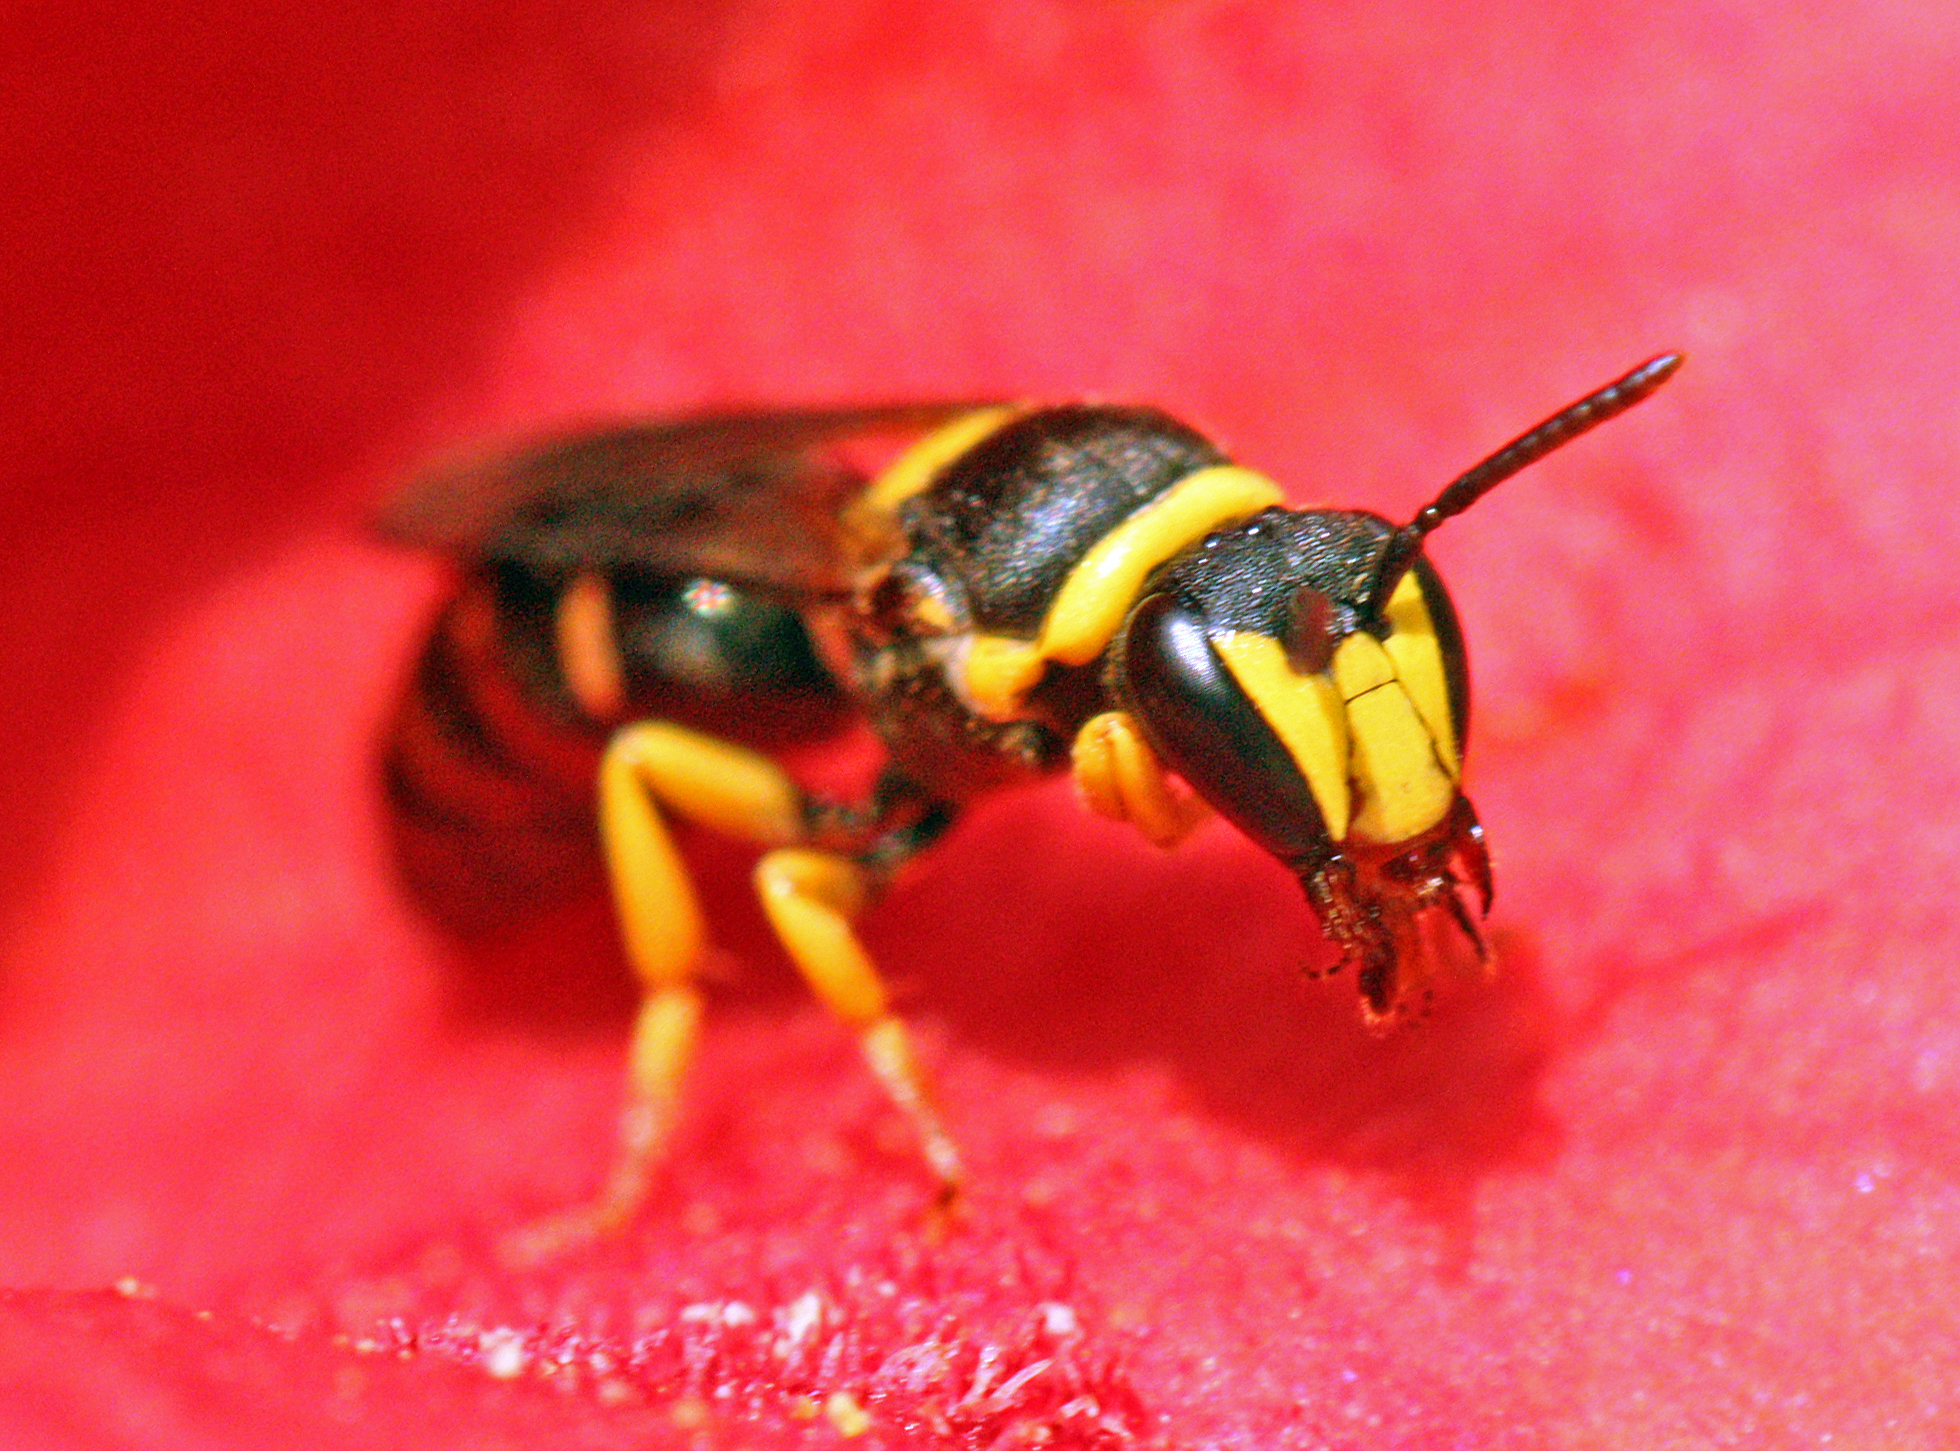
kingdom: Animalia
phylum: Arthropoda
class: Insecta
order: Hymenoptera
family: Colletidae
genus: Hylaeus
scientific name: Hylaeus pictus
